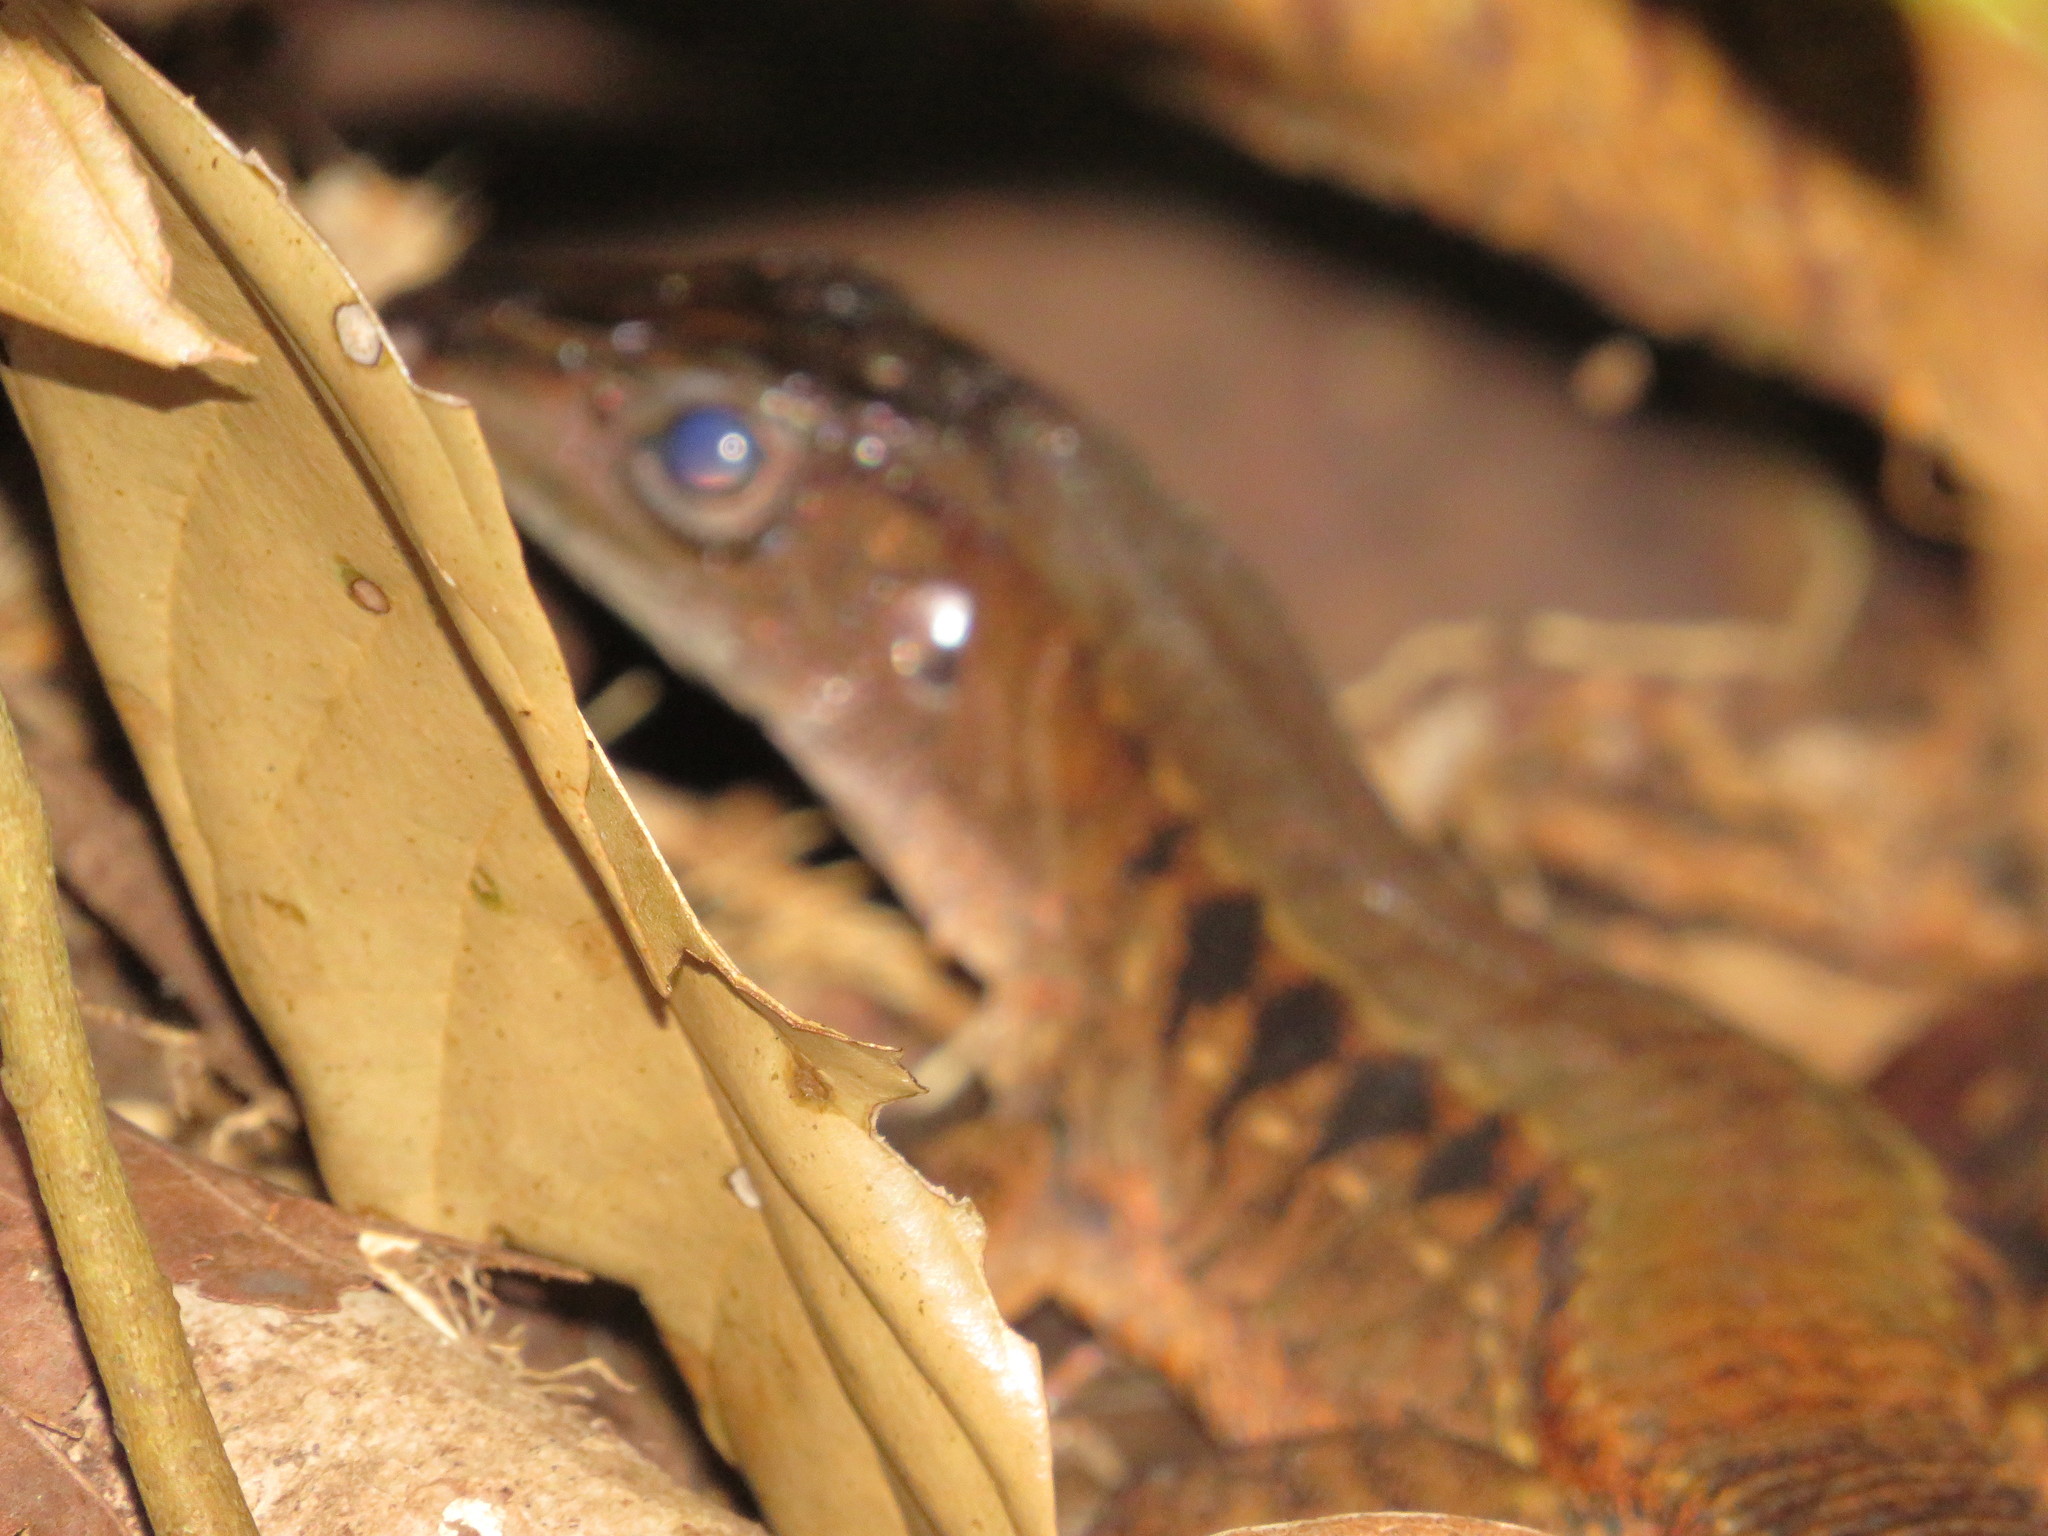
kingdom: Animalia
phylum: Chordata
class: Squamata
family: Teiidae
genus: Holcosus
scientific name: Holcosus leptophrys
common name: Delicate ameiva
